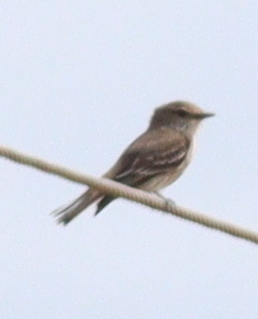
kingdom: Animalia
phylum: Chordata
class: Aves
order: Passeriformes
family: Tyrannidae
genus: Pyrocephalus
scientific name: Pyrocephalus rubinus
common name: Vermilion flycatcher
